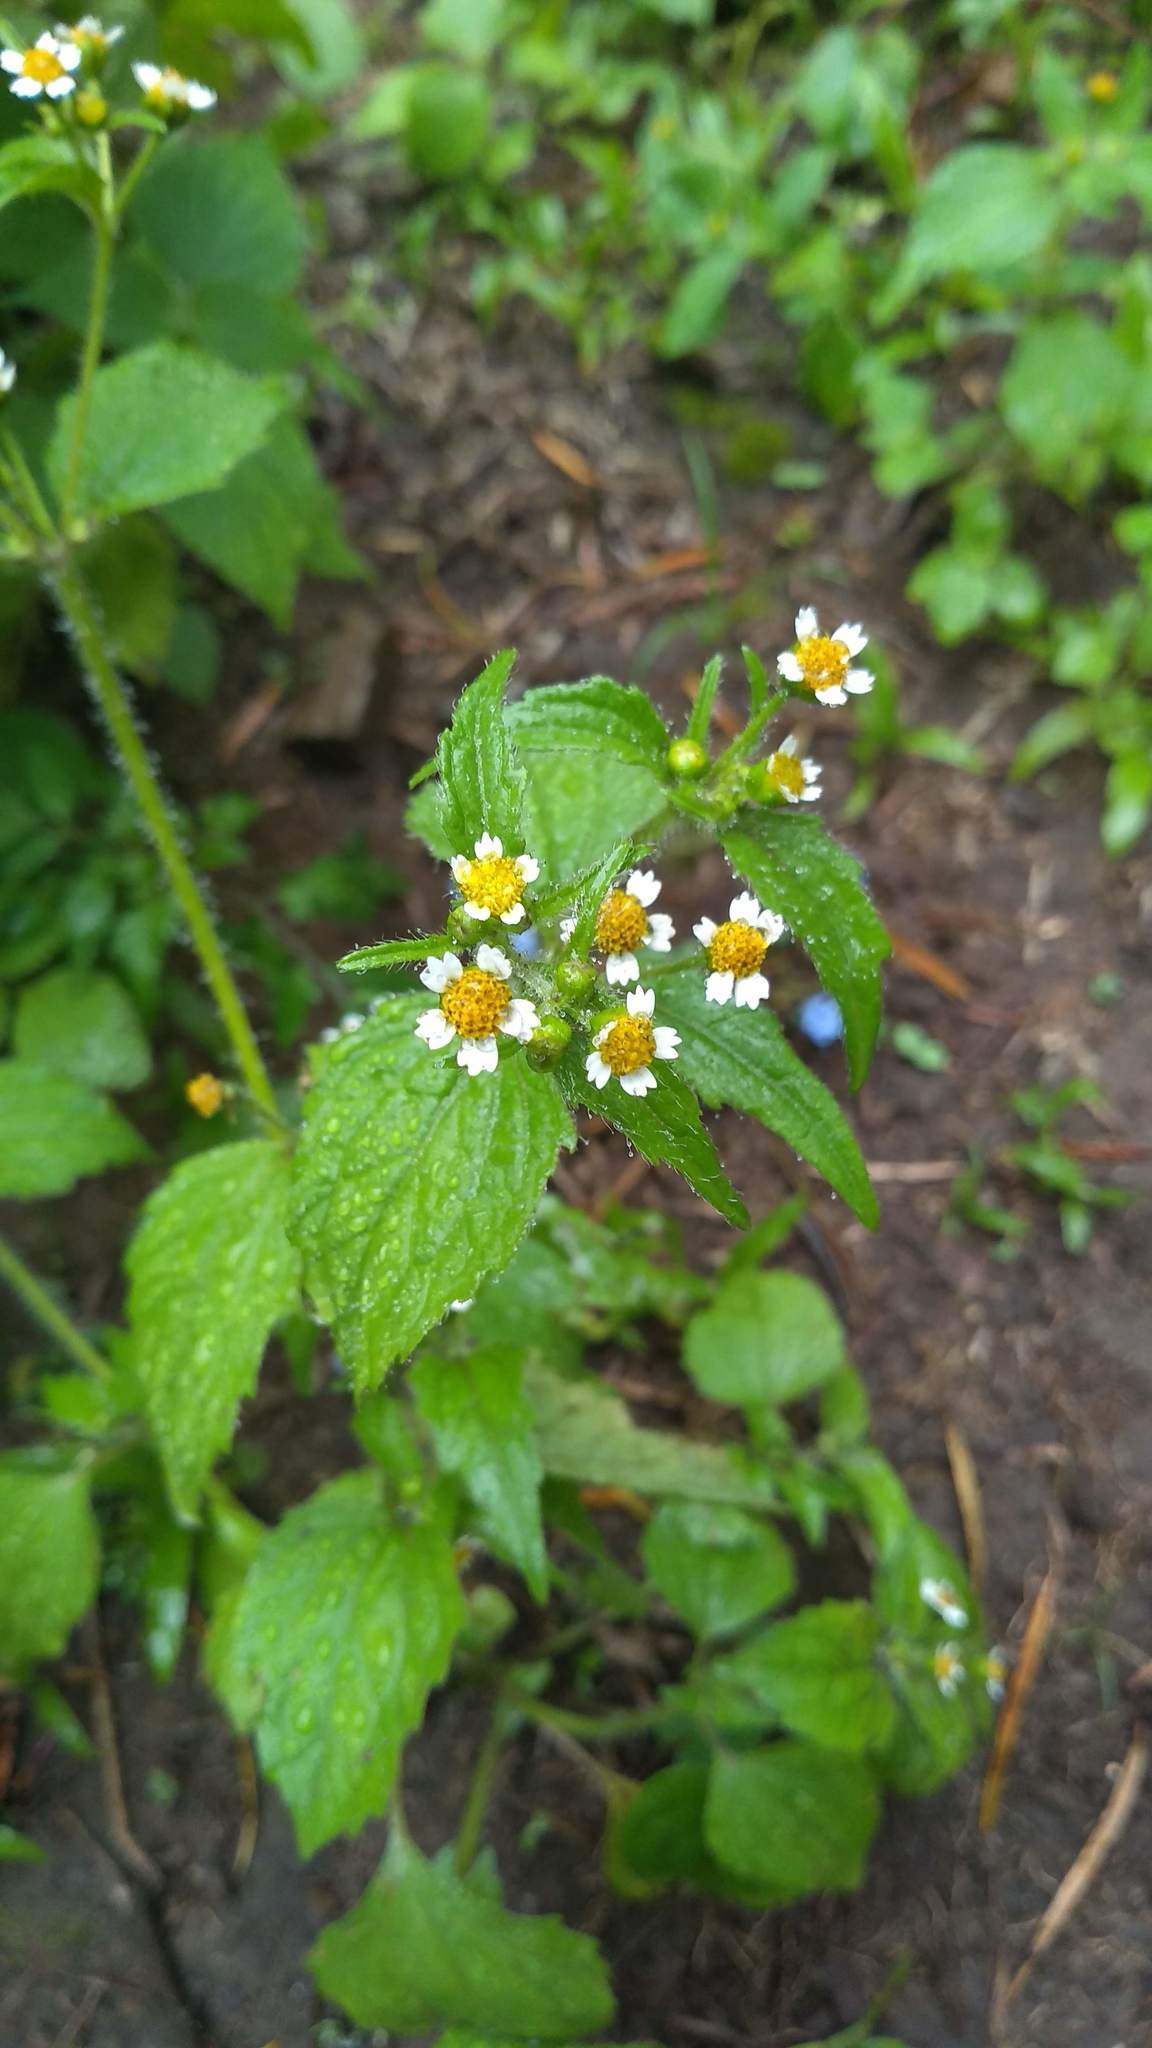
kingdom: Plantae
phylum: Tracheophyta
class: Magnoliopsida
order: Asterales
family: Asteraceae
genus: Galinsoga
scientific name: Galinsoga quadriradiata
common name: Shaggy soldier
